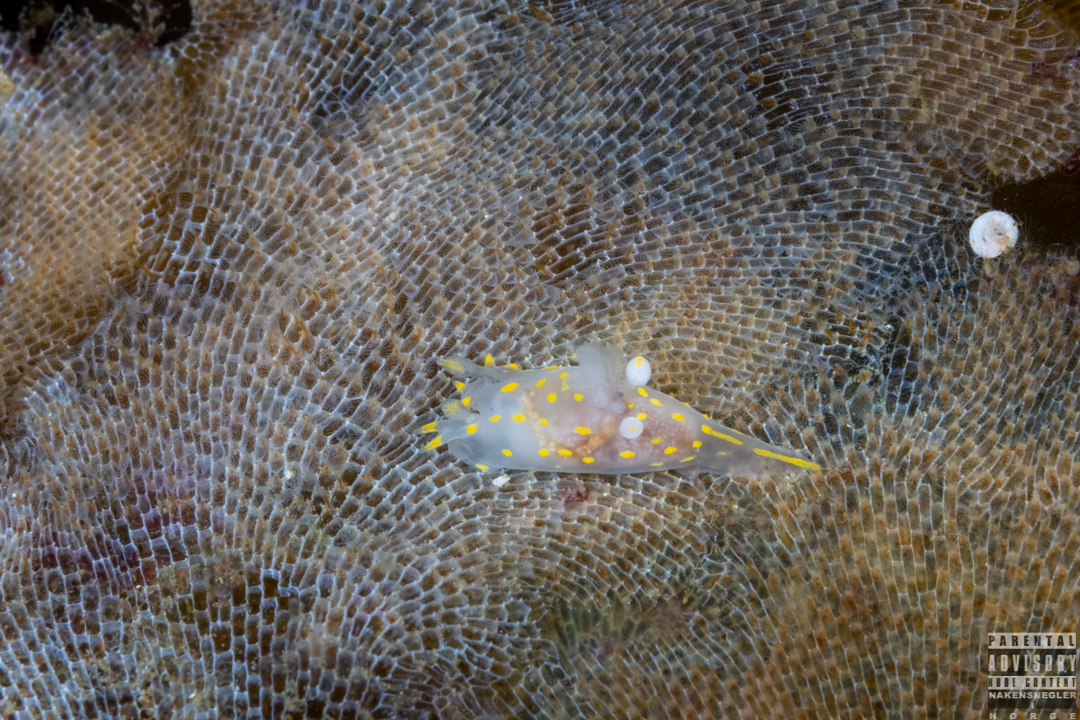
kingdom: Animalia
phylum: Mollusca
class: Gastropoda
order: Nudibranchia
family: Polyceridae
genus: Polycera
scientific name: Polycera norvegica
